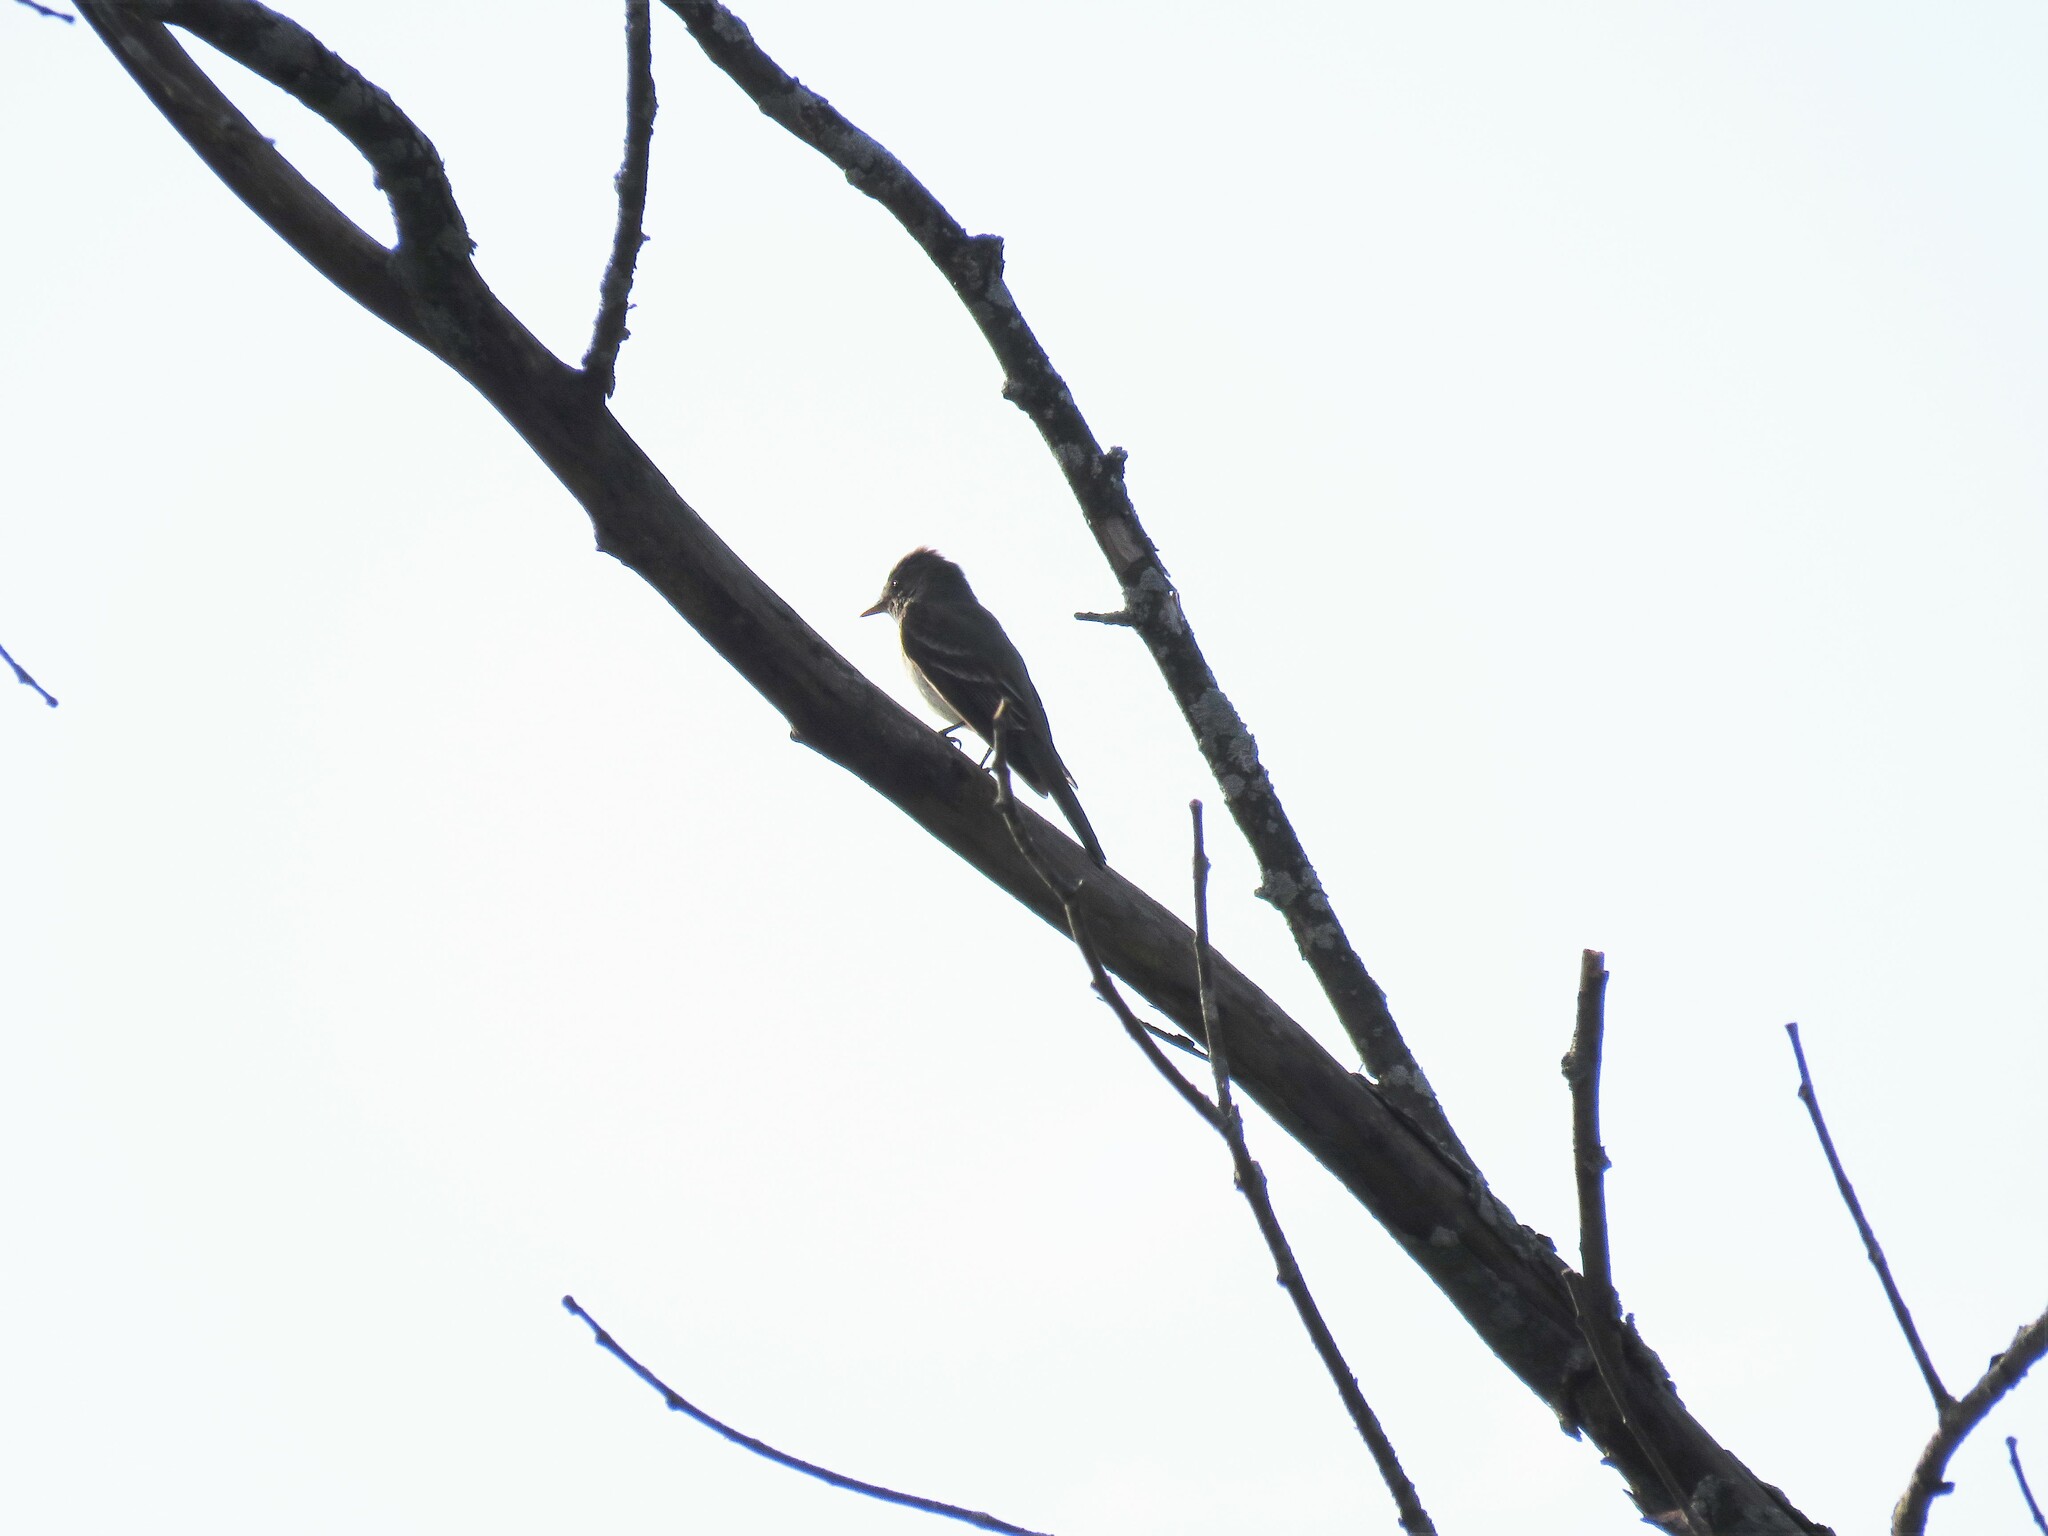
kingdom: Animalia
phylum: Chordata
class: Aves
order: Passeriformes
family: Tyrannidae
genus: Contopus
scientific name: Contopus virens
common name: Eastern wood-pewee
